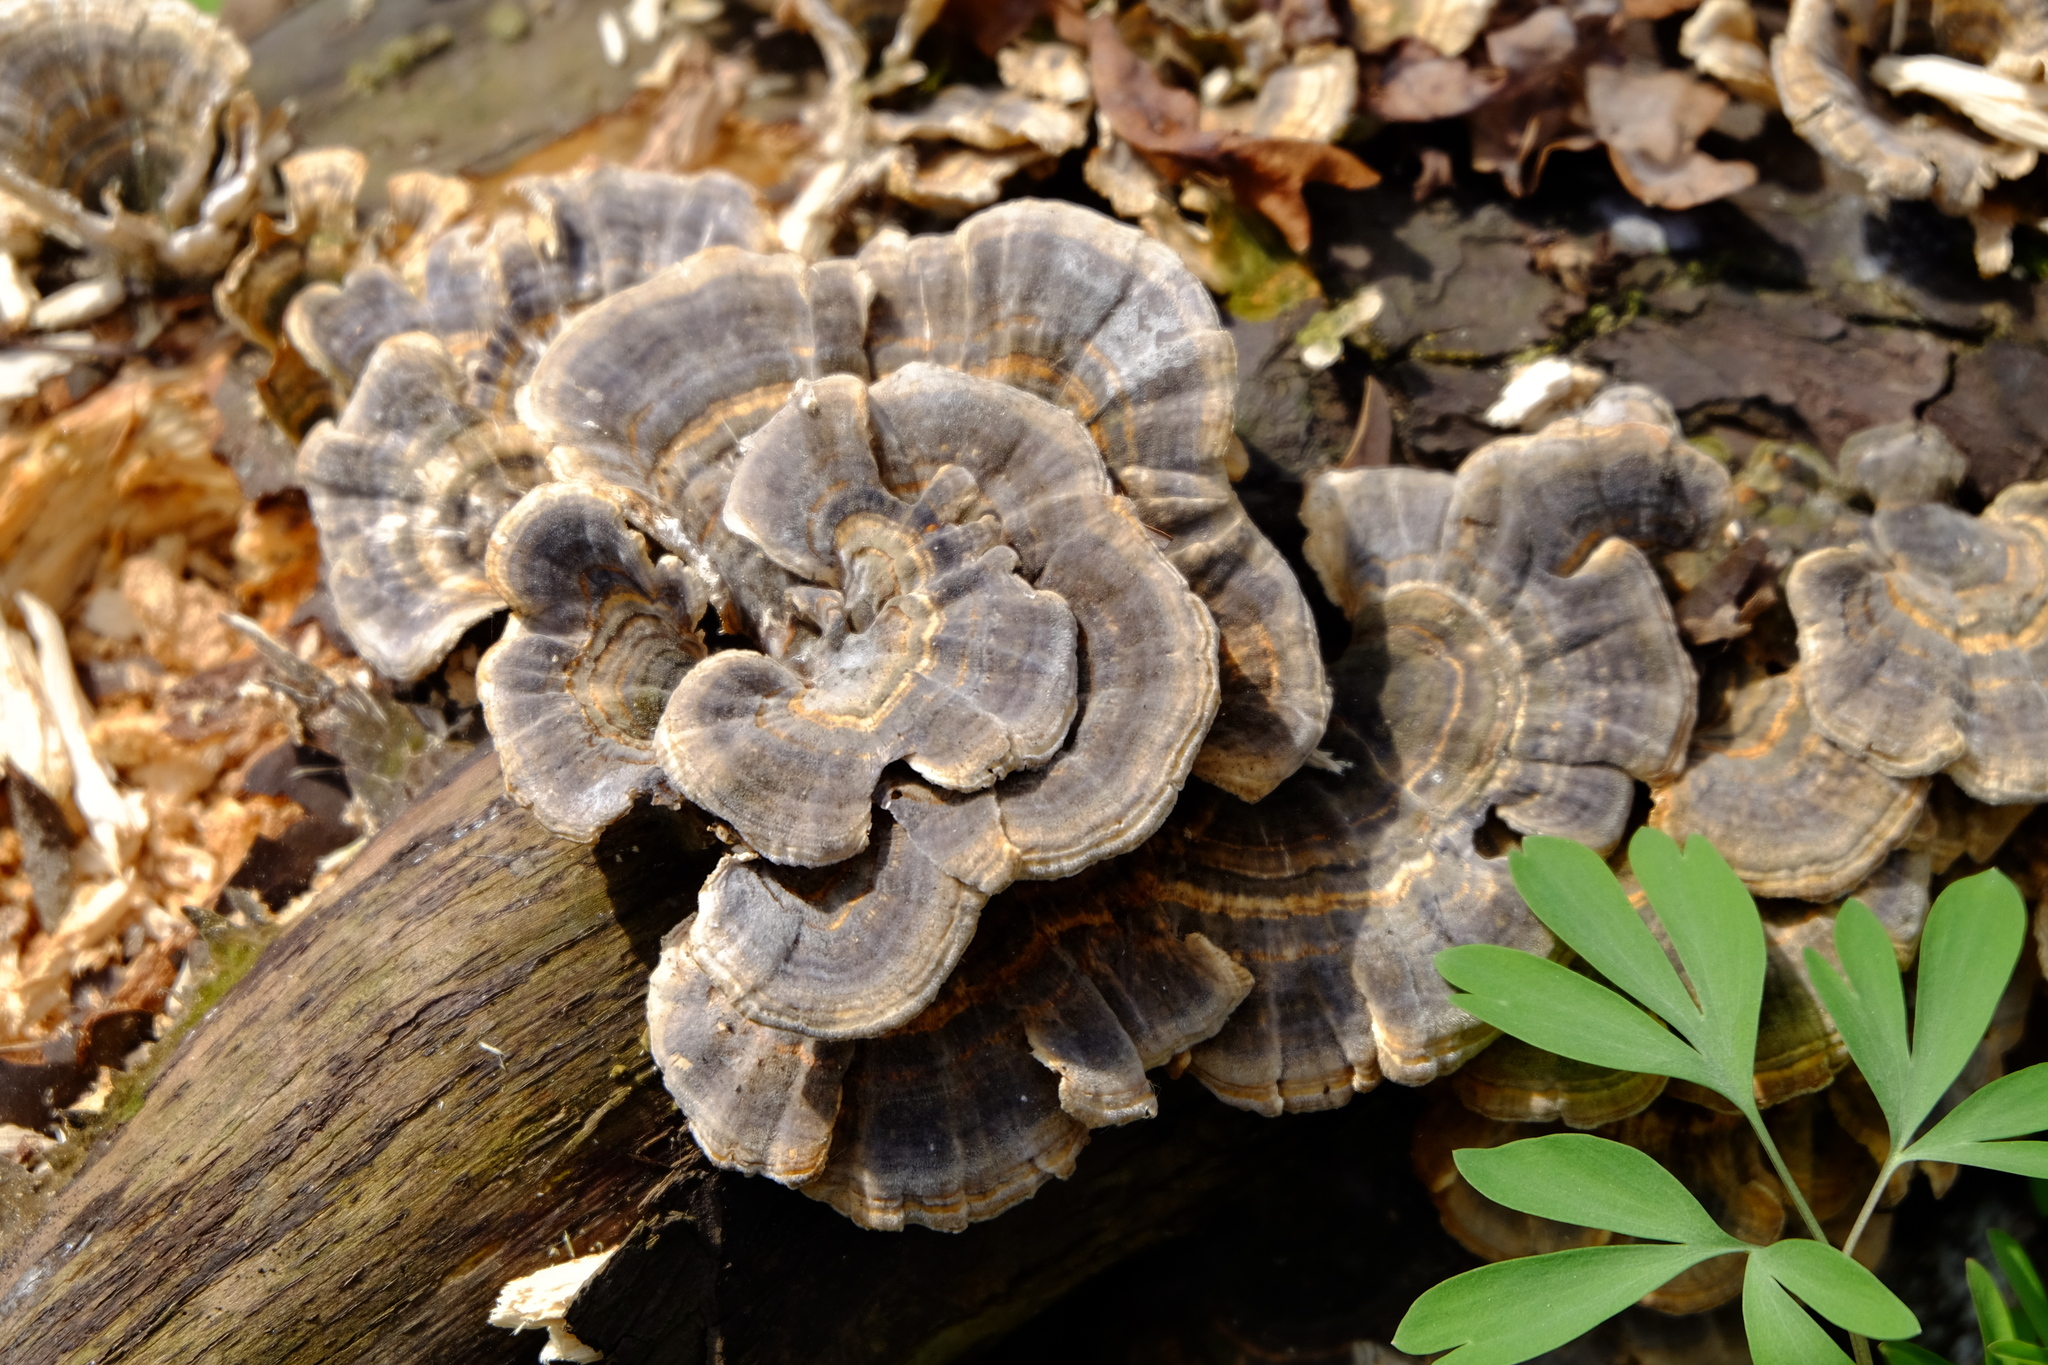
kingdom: Fungi
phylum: Basidiomycota
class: Agaricomycetes
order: Polyporales
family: Polyporaceae
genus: Trametes
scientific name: Trametes versicolor
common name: Turkeytail
